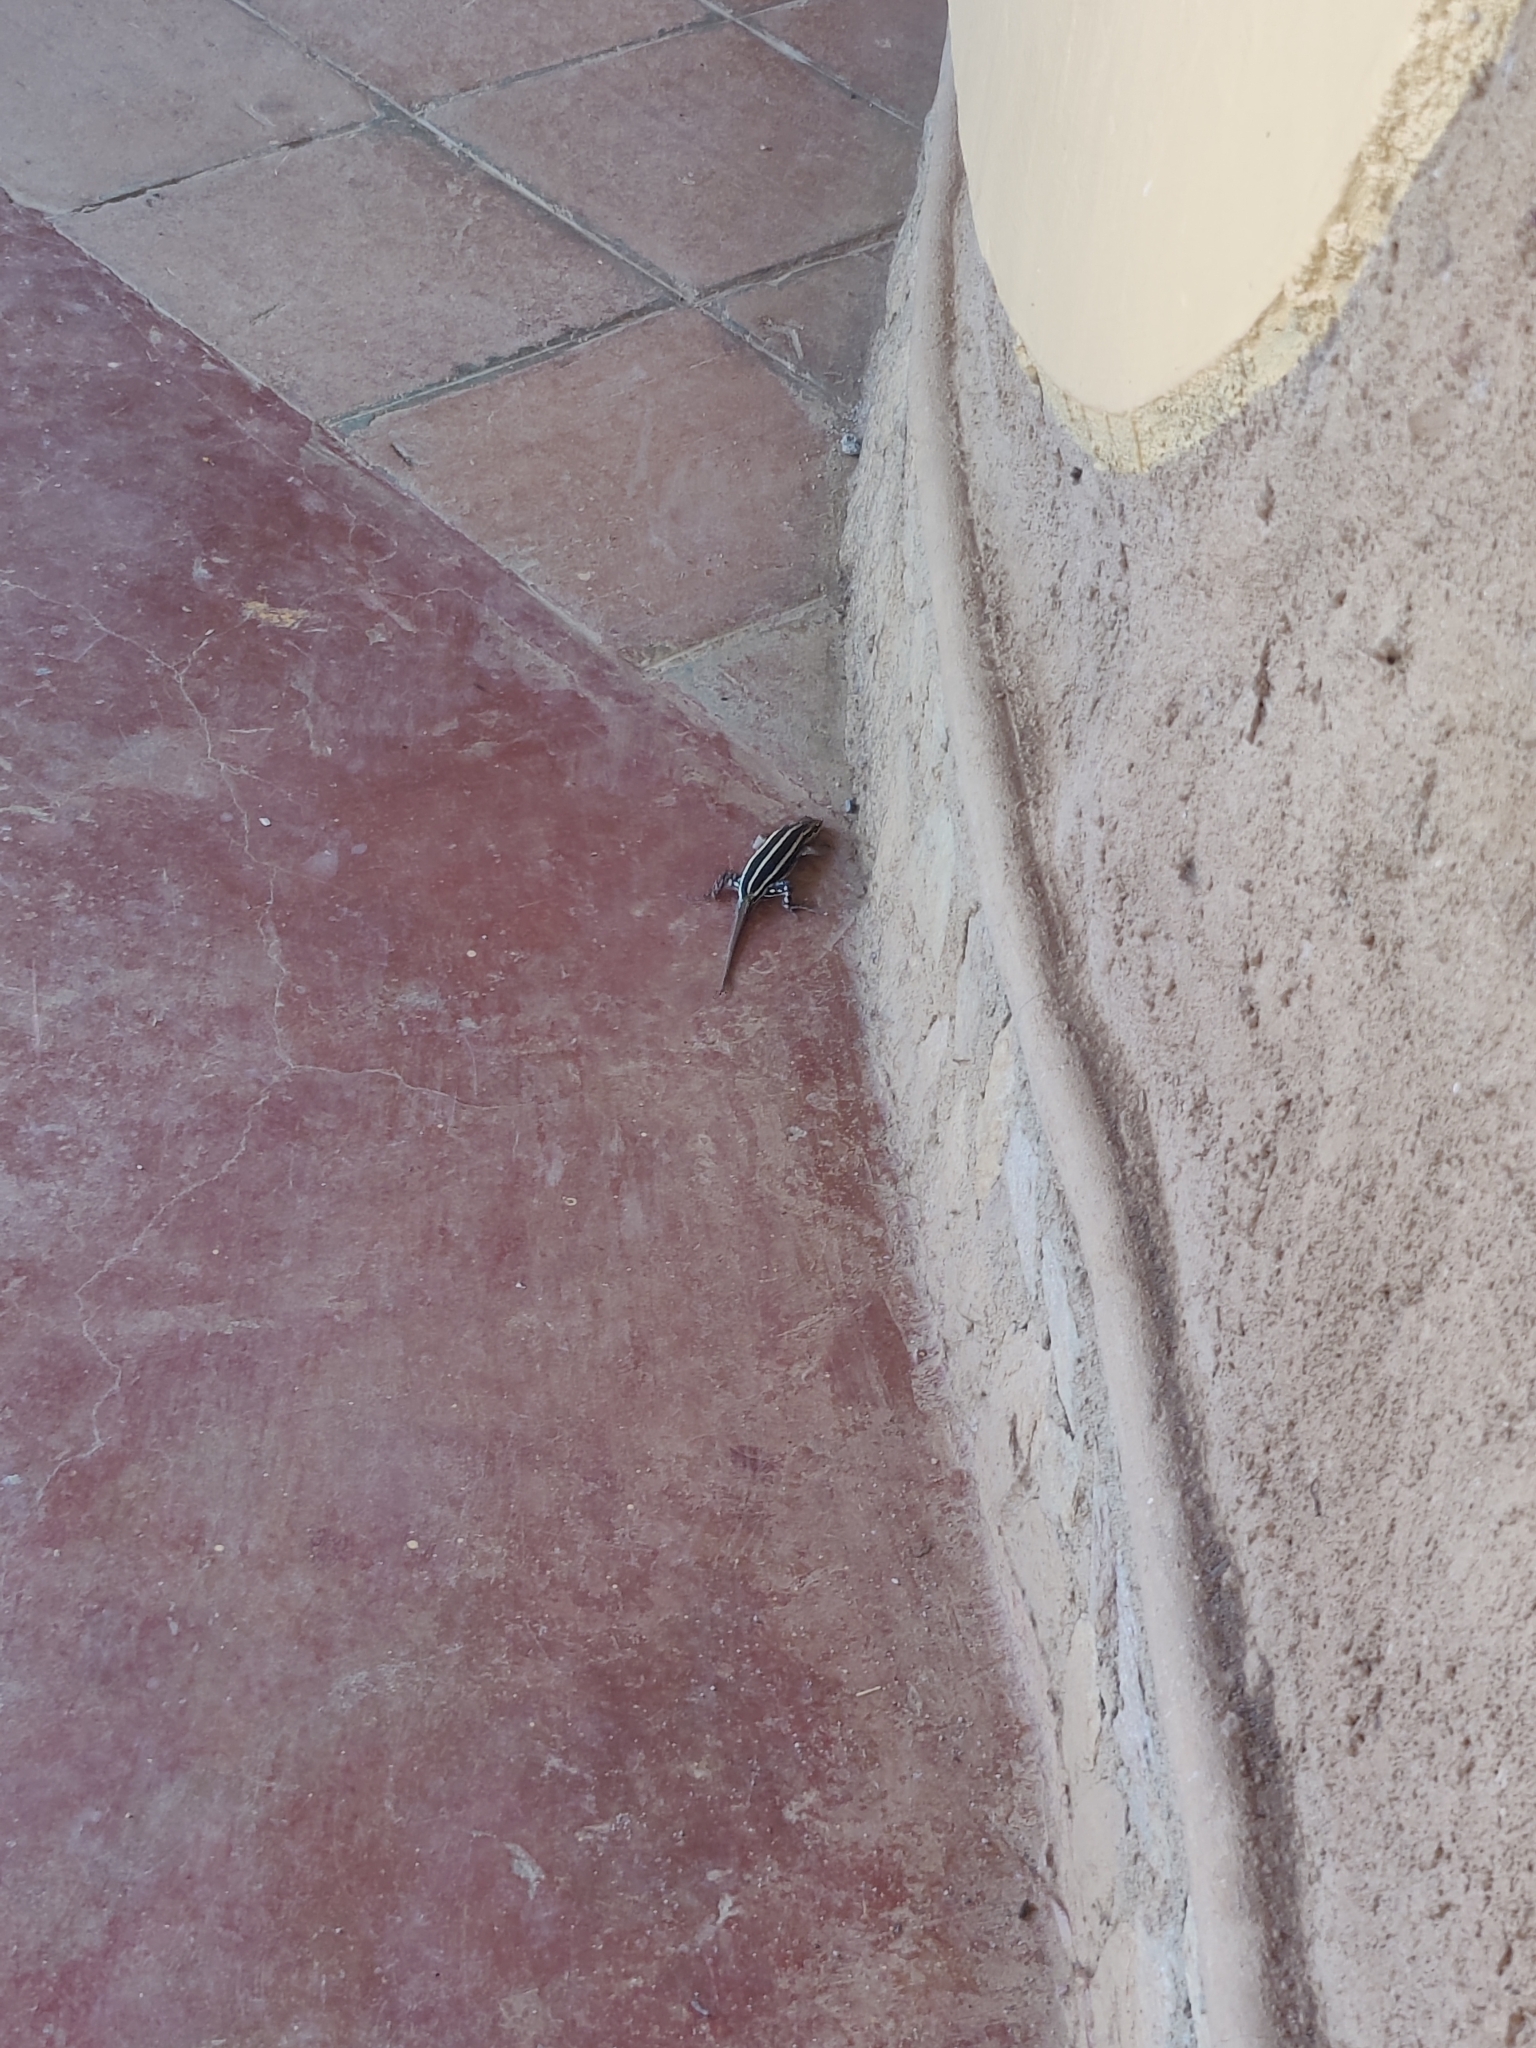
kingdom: Animalia
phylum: Chordata
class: Squamata
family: Scincidae
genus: Trachylepis
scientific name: Trachylepis quinquetaeniata
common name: African five-lined skink
